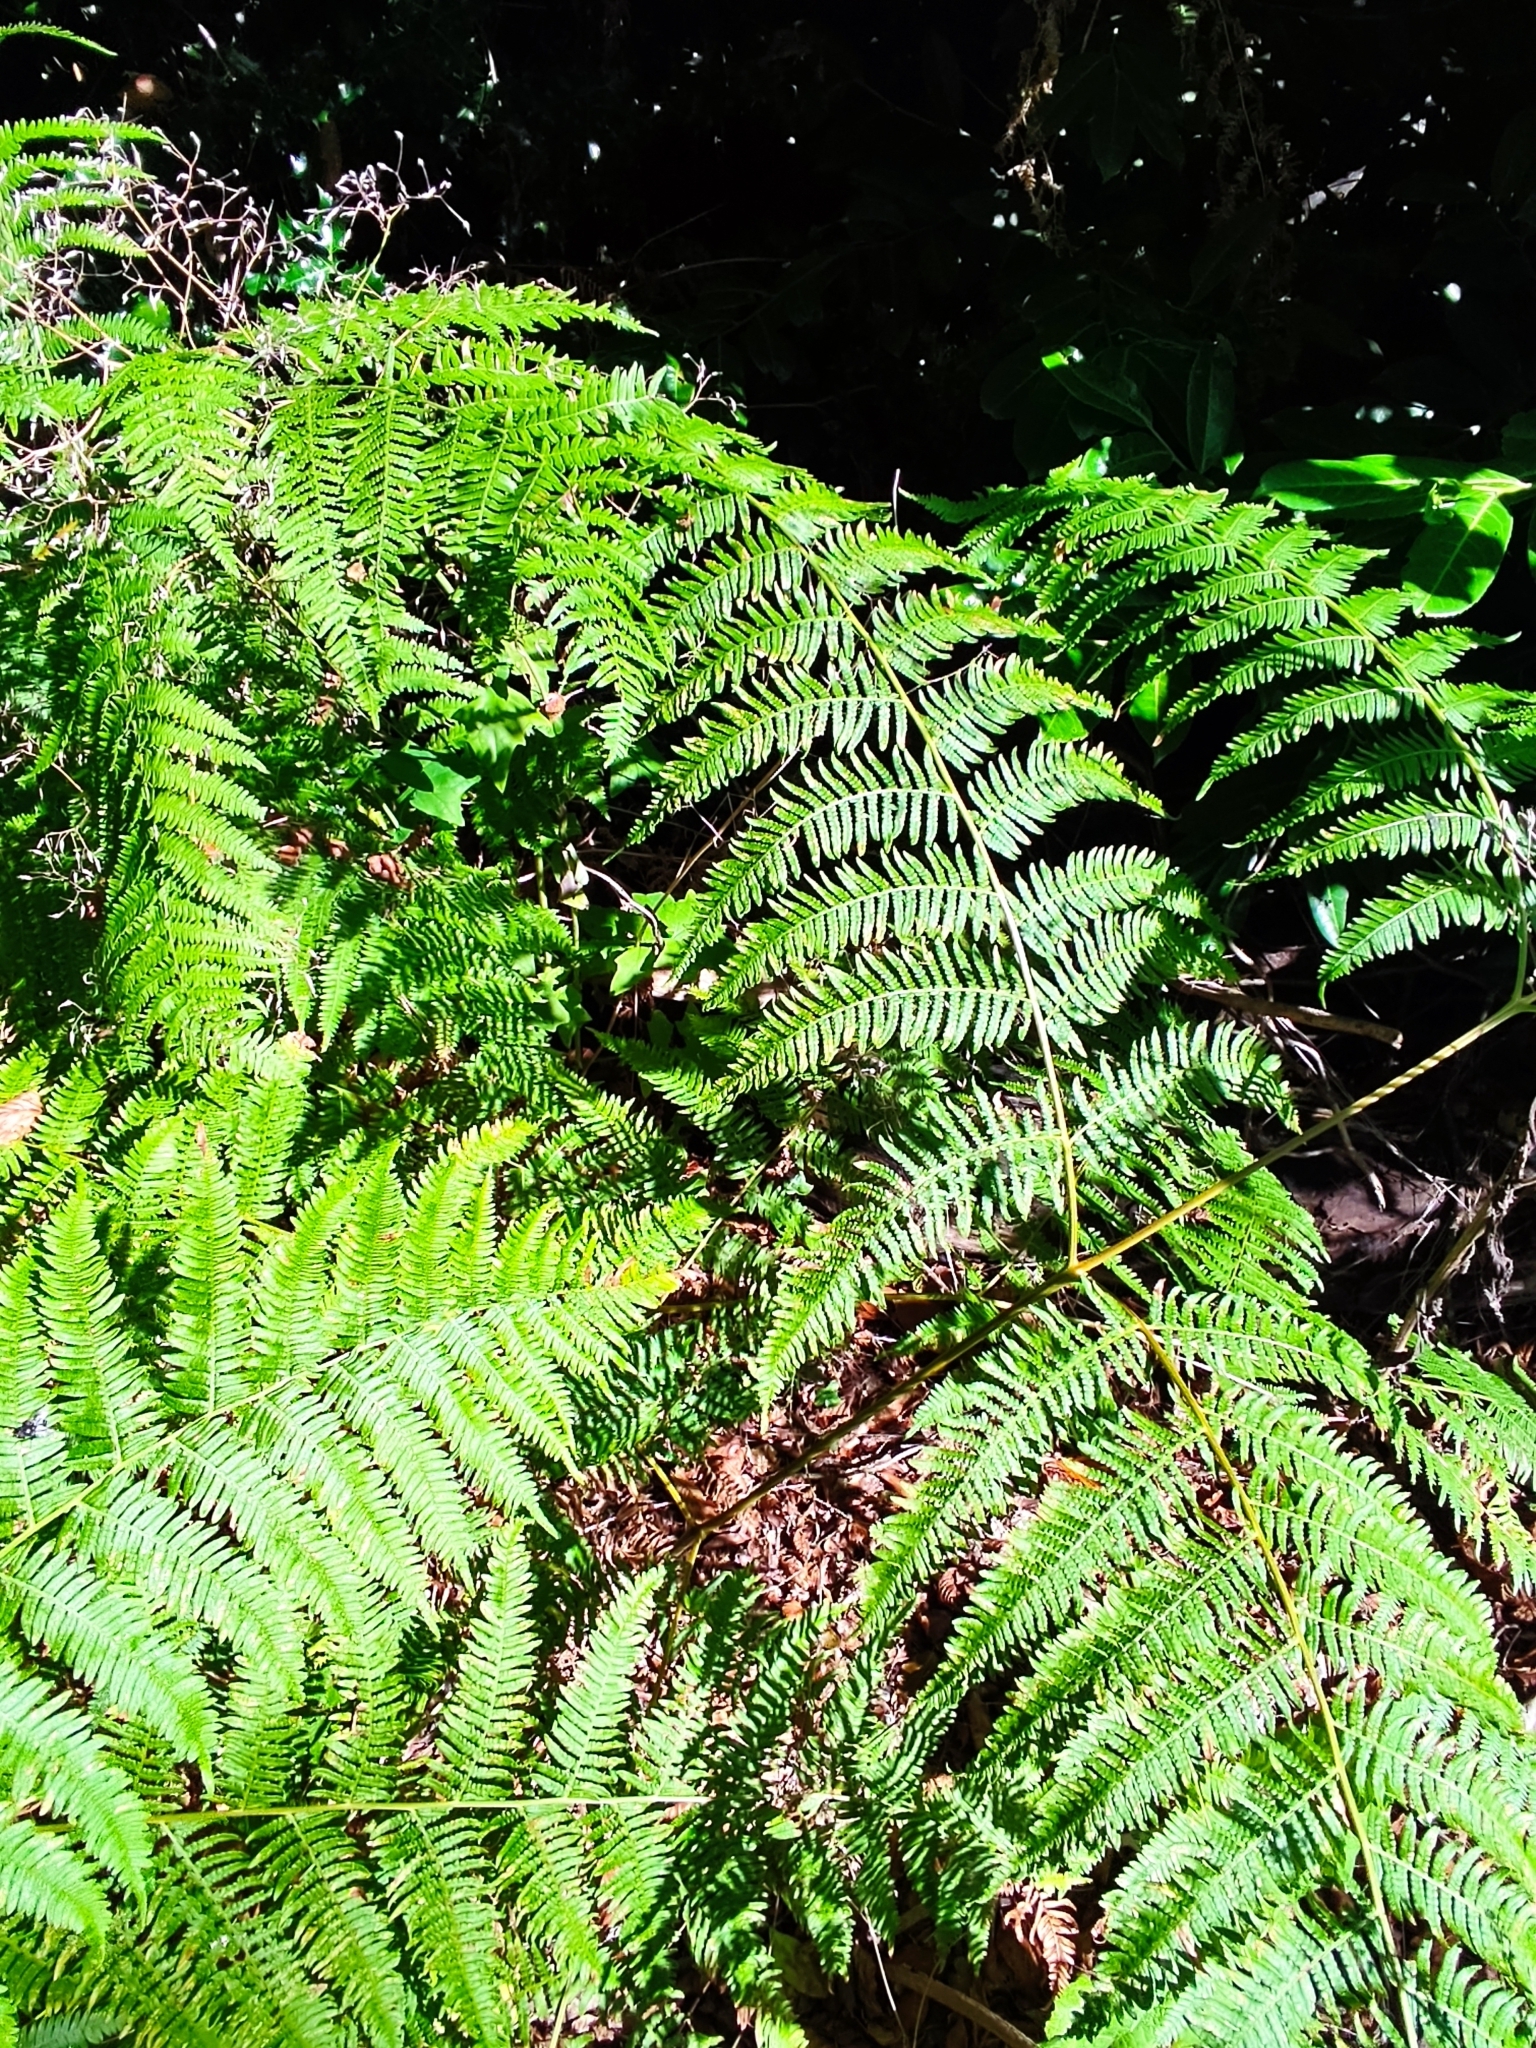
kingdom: Plantae
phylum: Tracheophyta
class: Polypodiopsida
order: Polypodiales
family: Dennstaedtiaceae
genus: Pteridium
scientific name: Pteridium aquilinum
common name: Bracken
